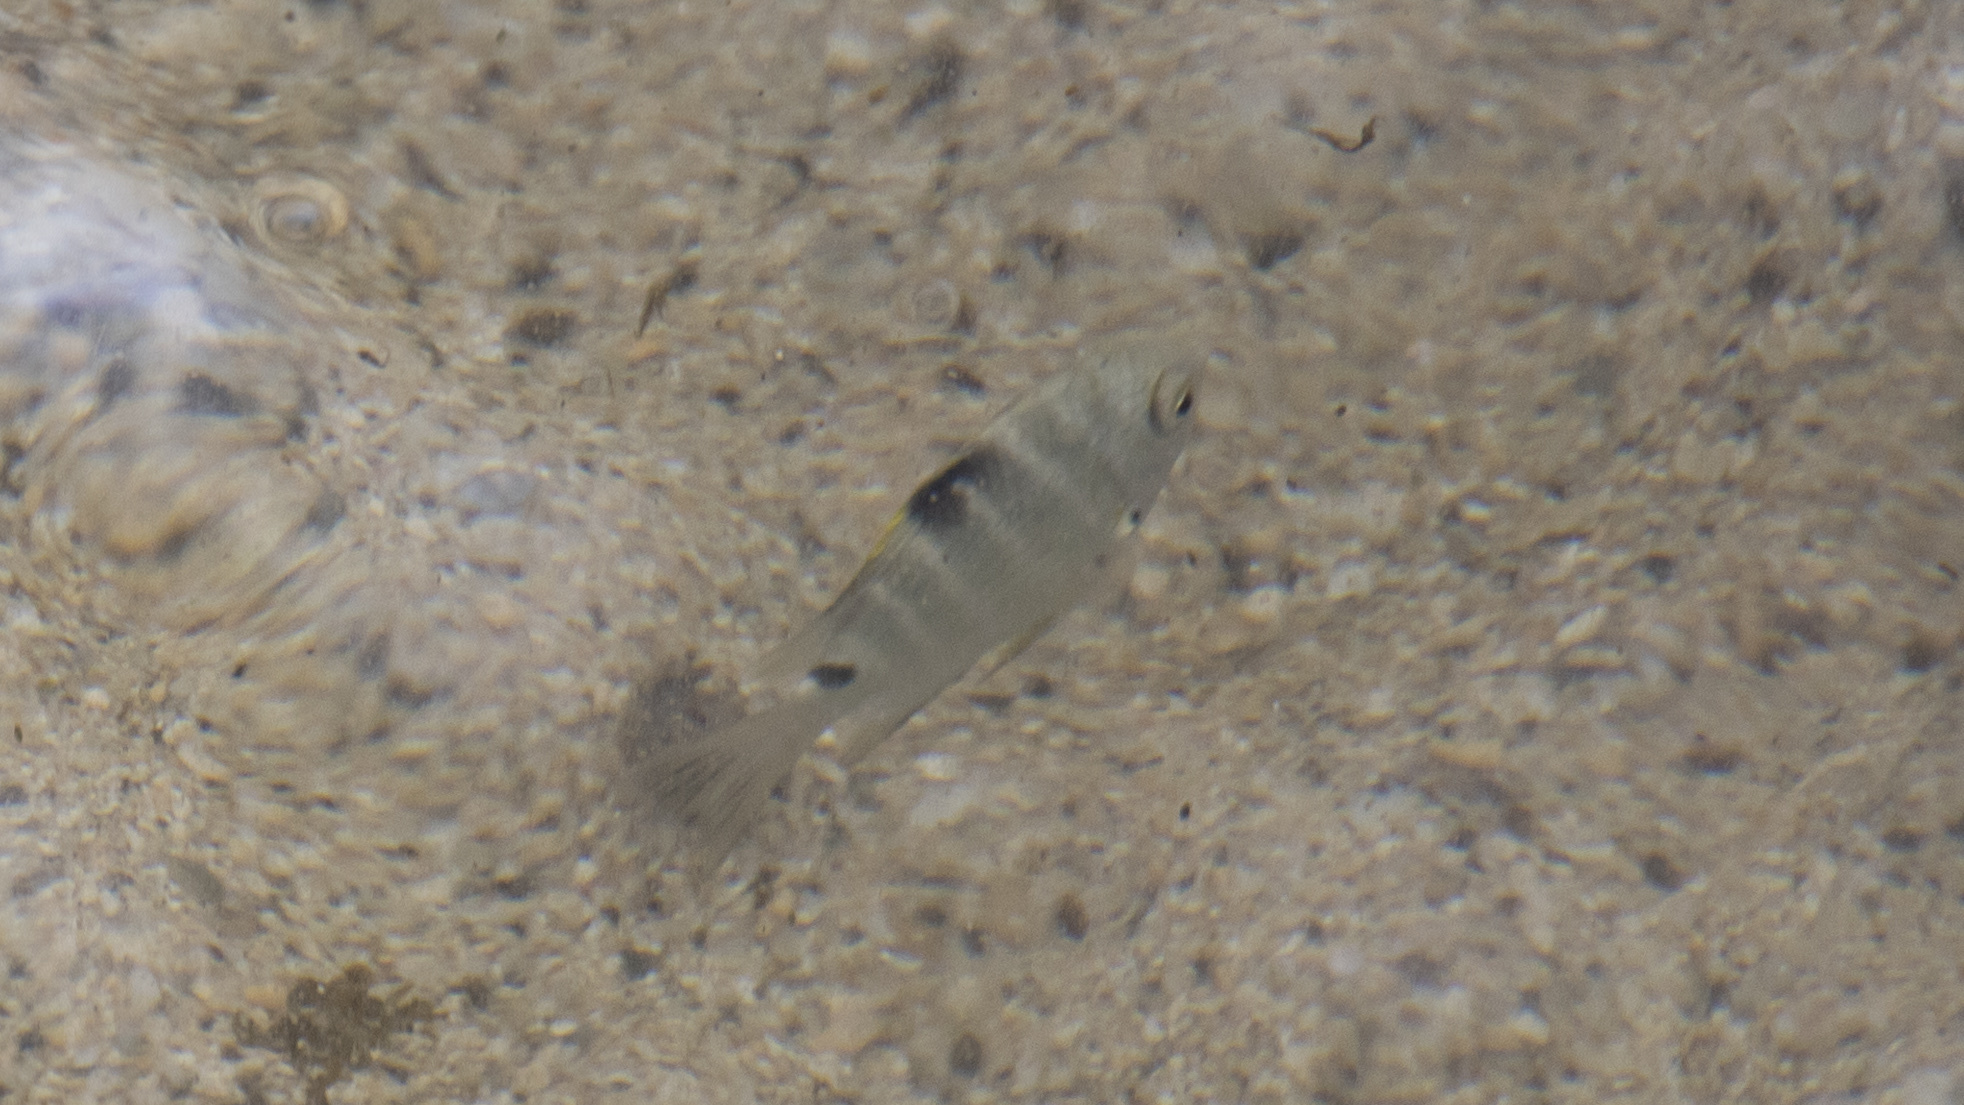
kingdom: Animalia
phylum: Chordata
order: Perciformes
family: Pomacentridae
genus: Abudefduf
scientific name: Abudefduf sordidus
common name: Blackspot sergeant
